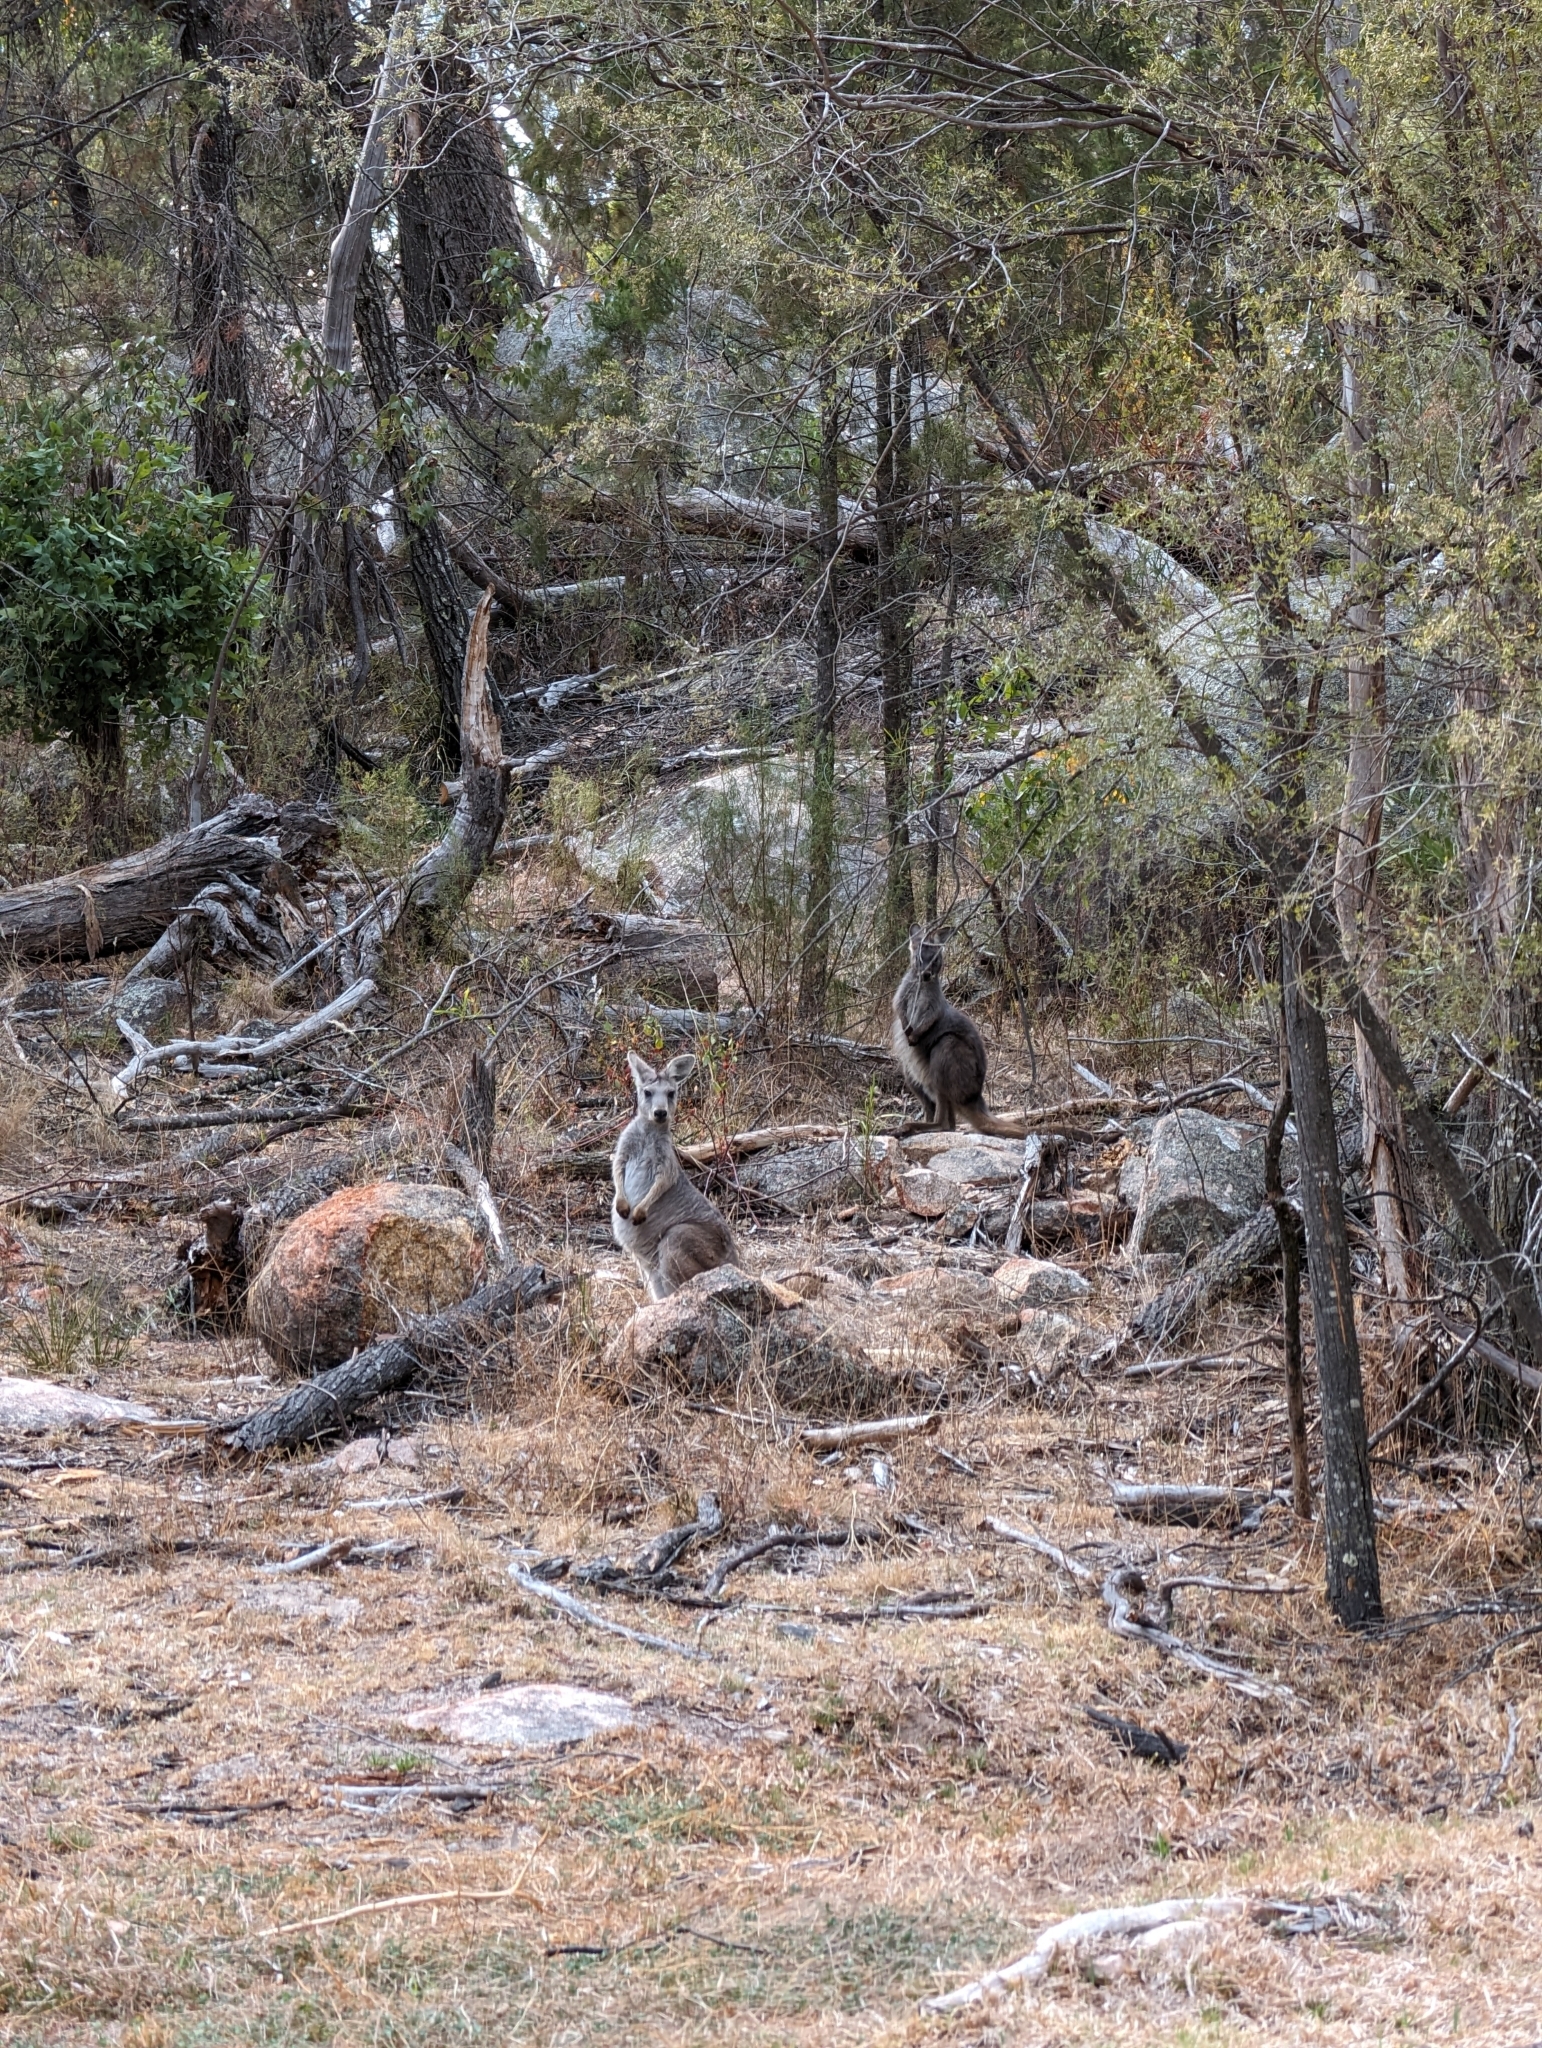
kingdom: Animalia
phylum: Chordata
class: Mammalia
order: Diprotodontia
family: Macropodidae
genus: Macropus
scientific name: Macropus robustus
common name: Eastern wallaroo
